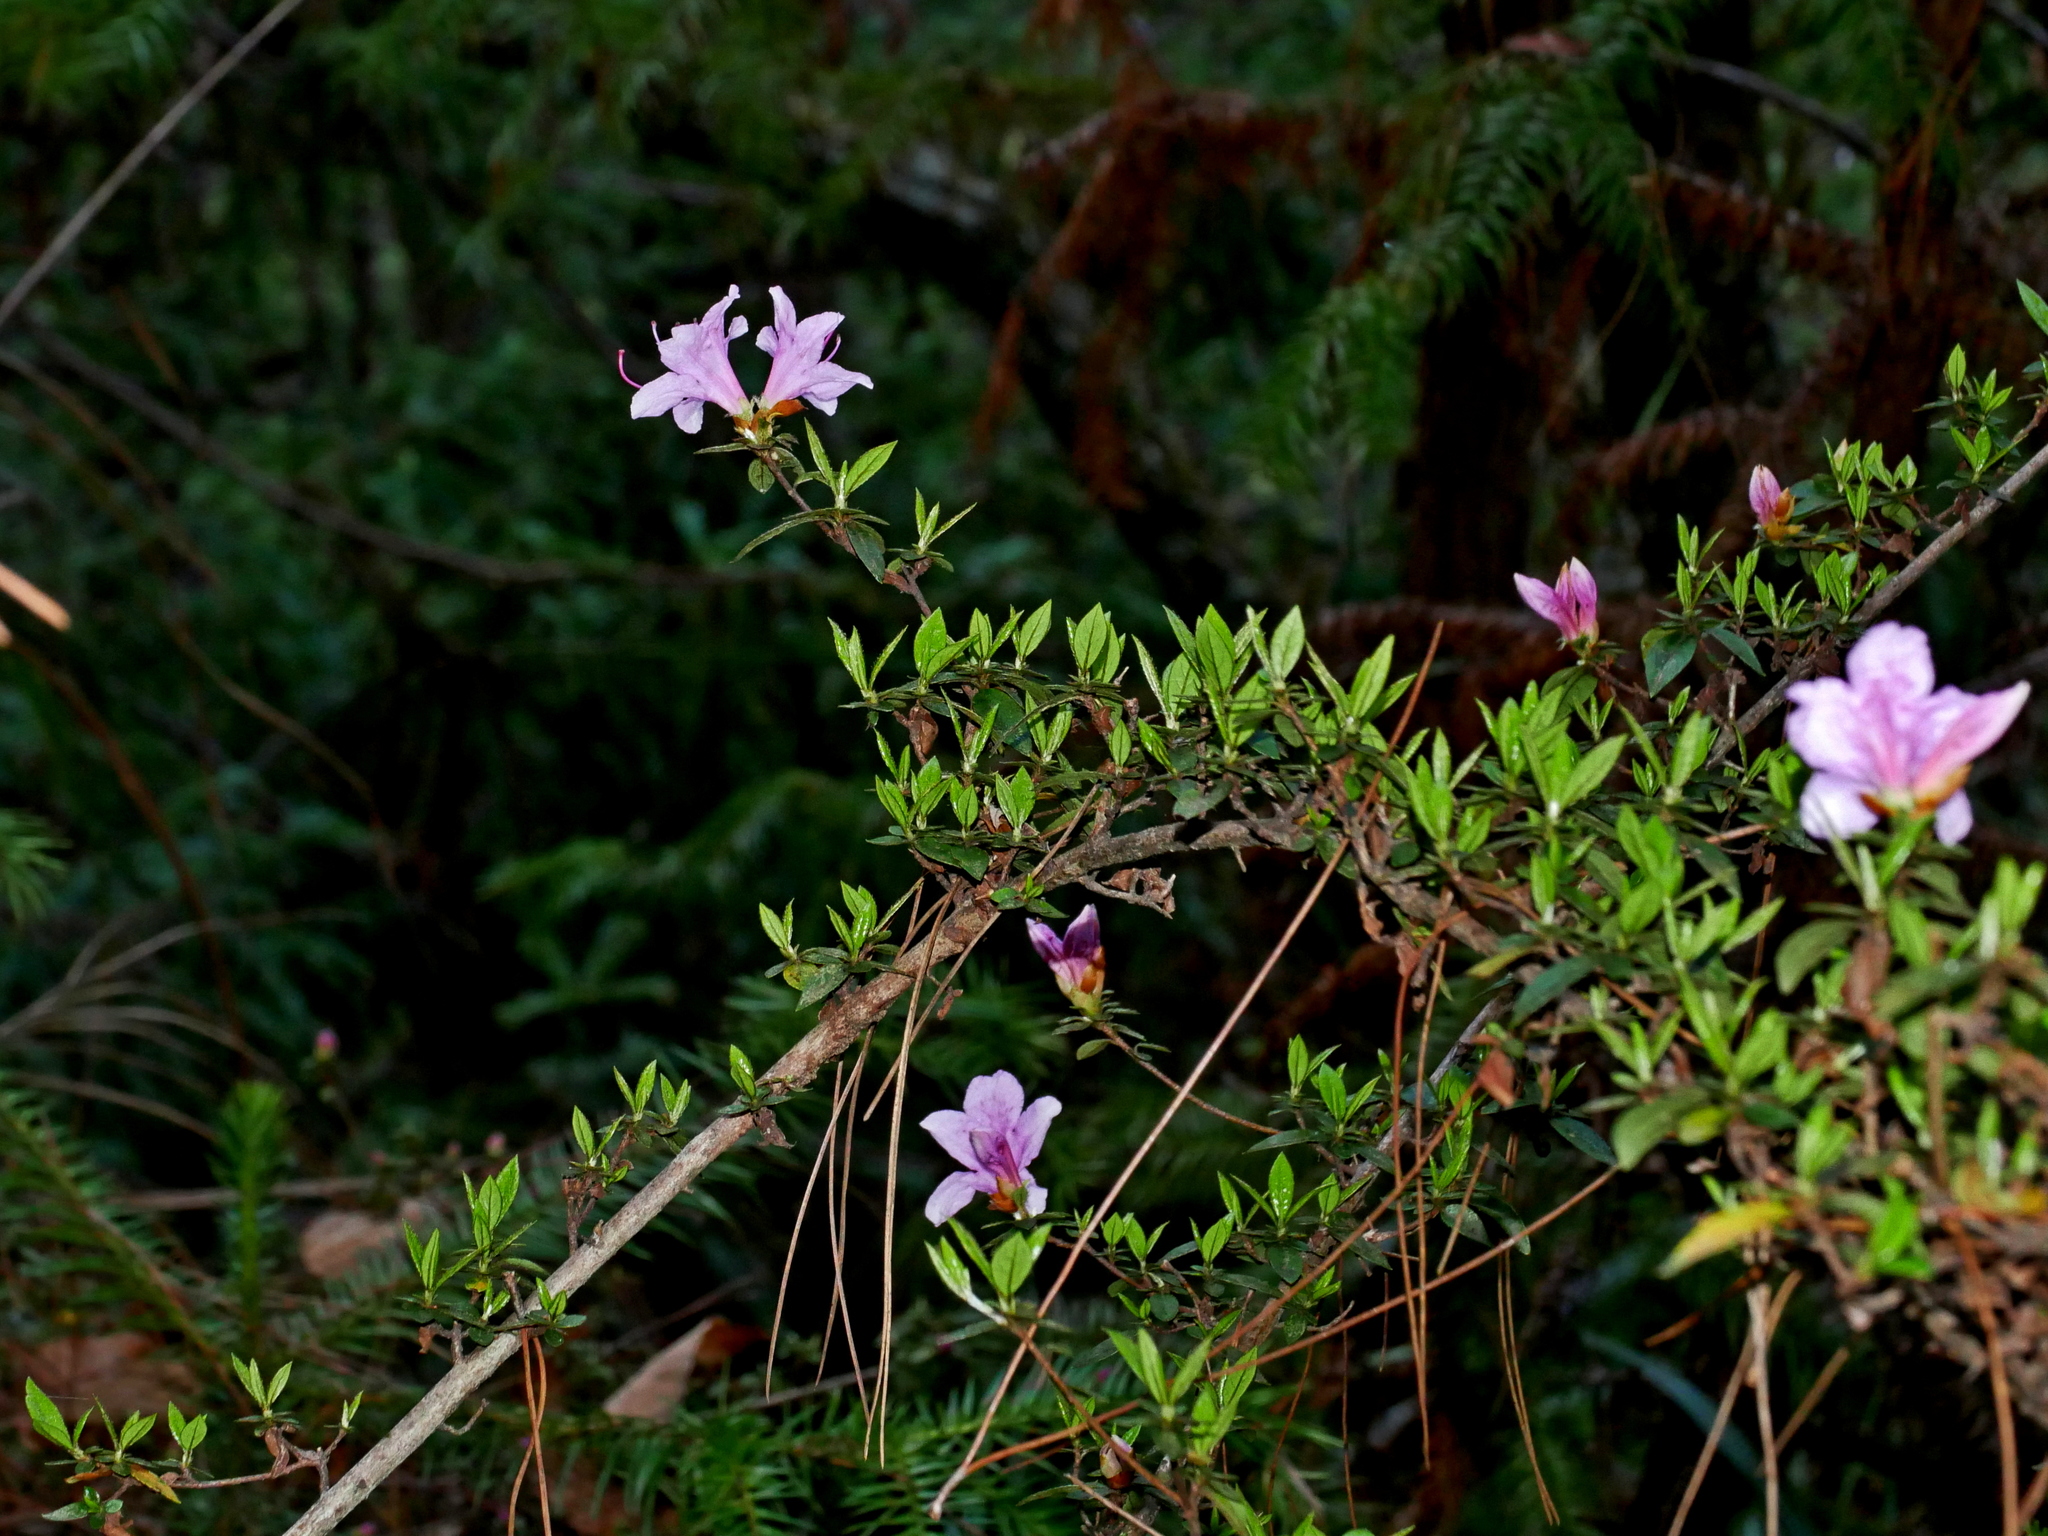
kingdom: Plantae
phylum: Tracheophyta
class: Magnoliopsida
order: Ericales
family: Ericaceae
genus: Rhododendron
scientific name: Rhododendron noriakianum
